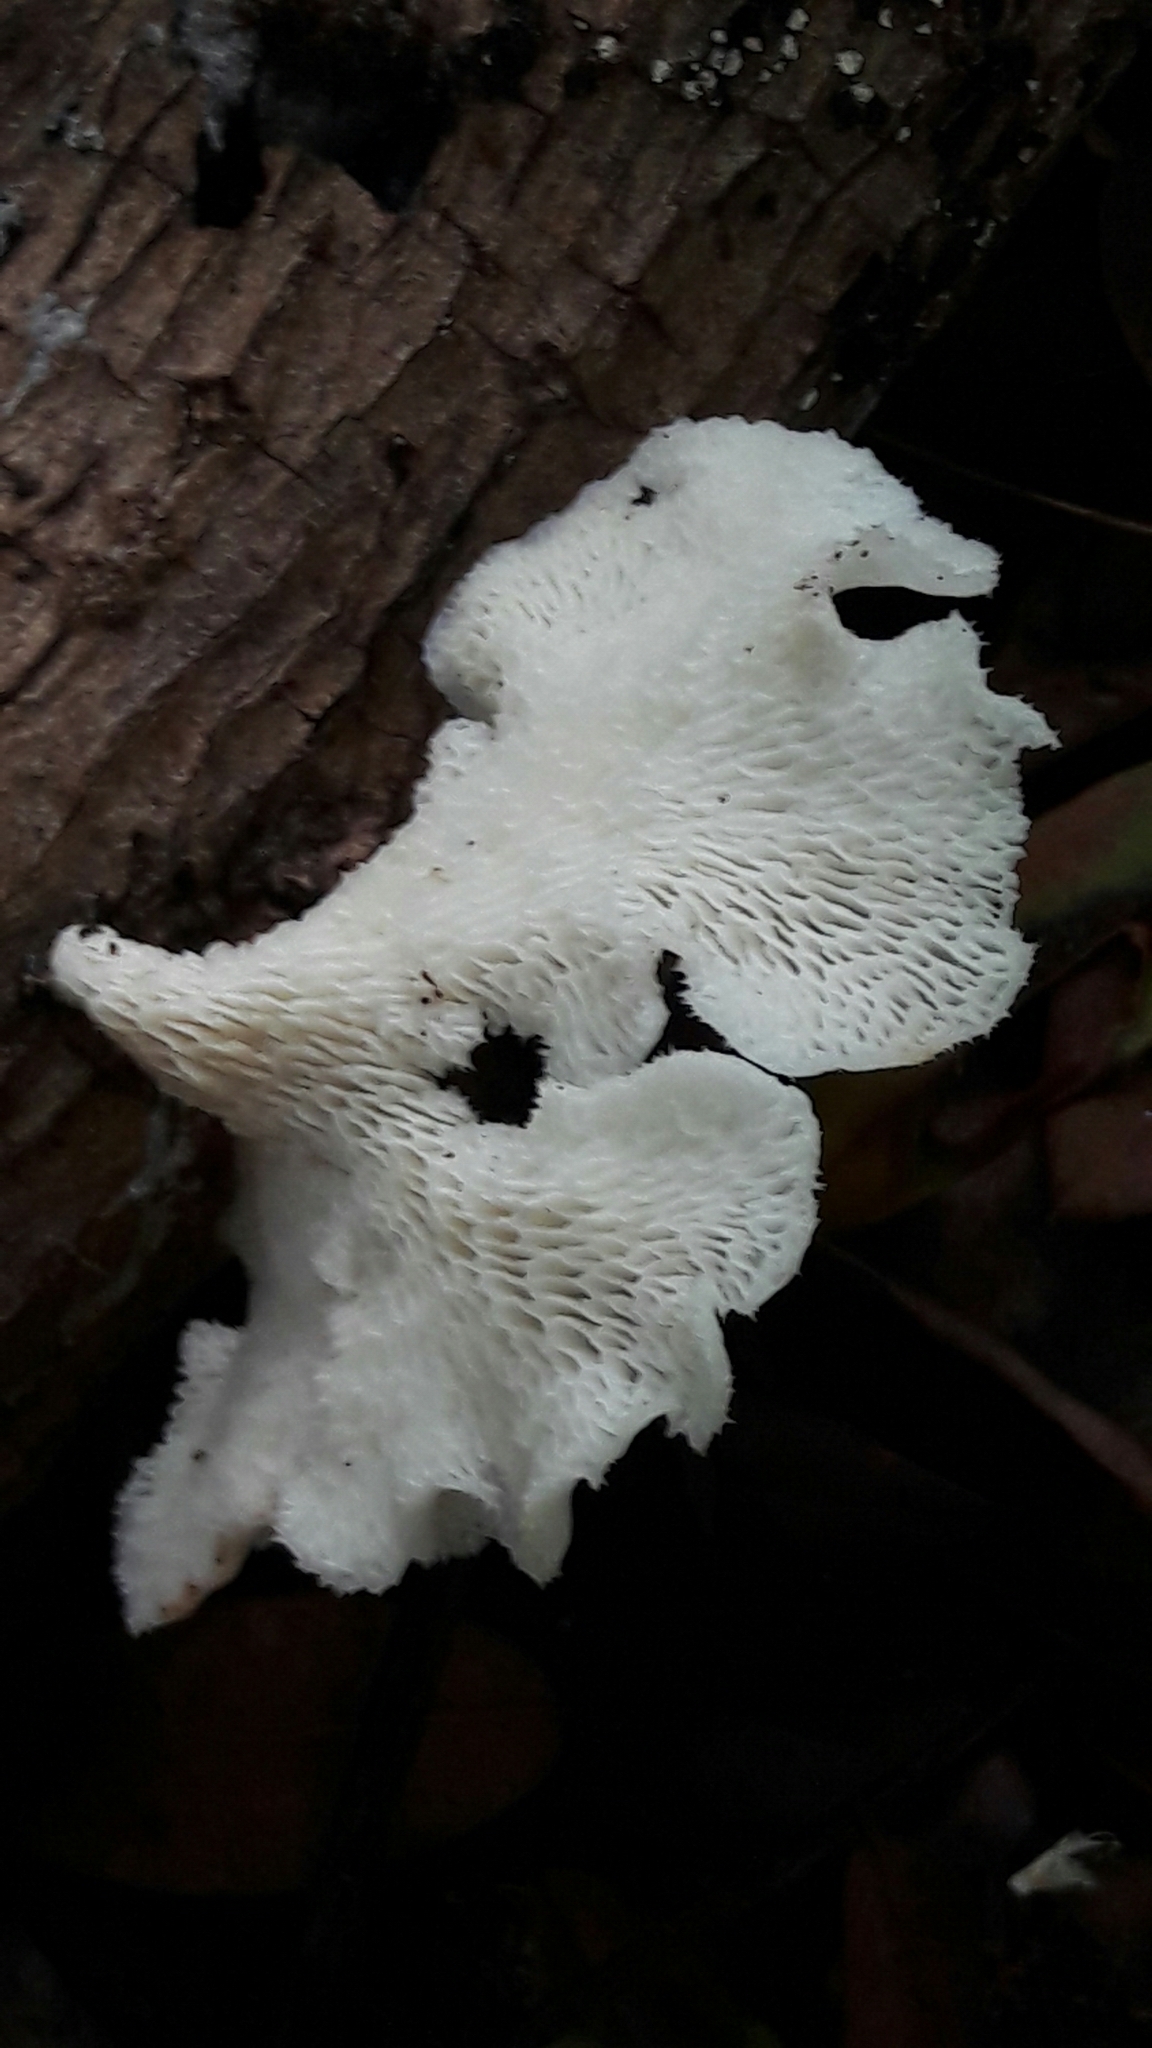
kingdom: Fungi
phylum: Basidiomycota
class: Agaricomycetes
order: Polyporales
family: Polyporaceae
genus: Favolus
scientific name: Favolus tenuiculus
